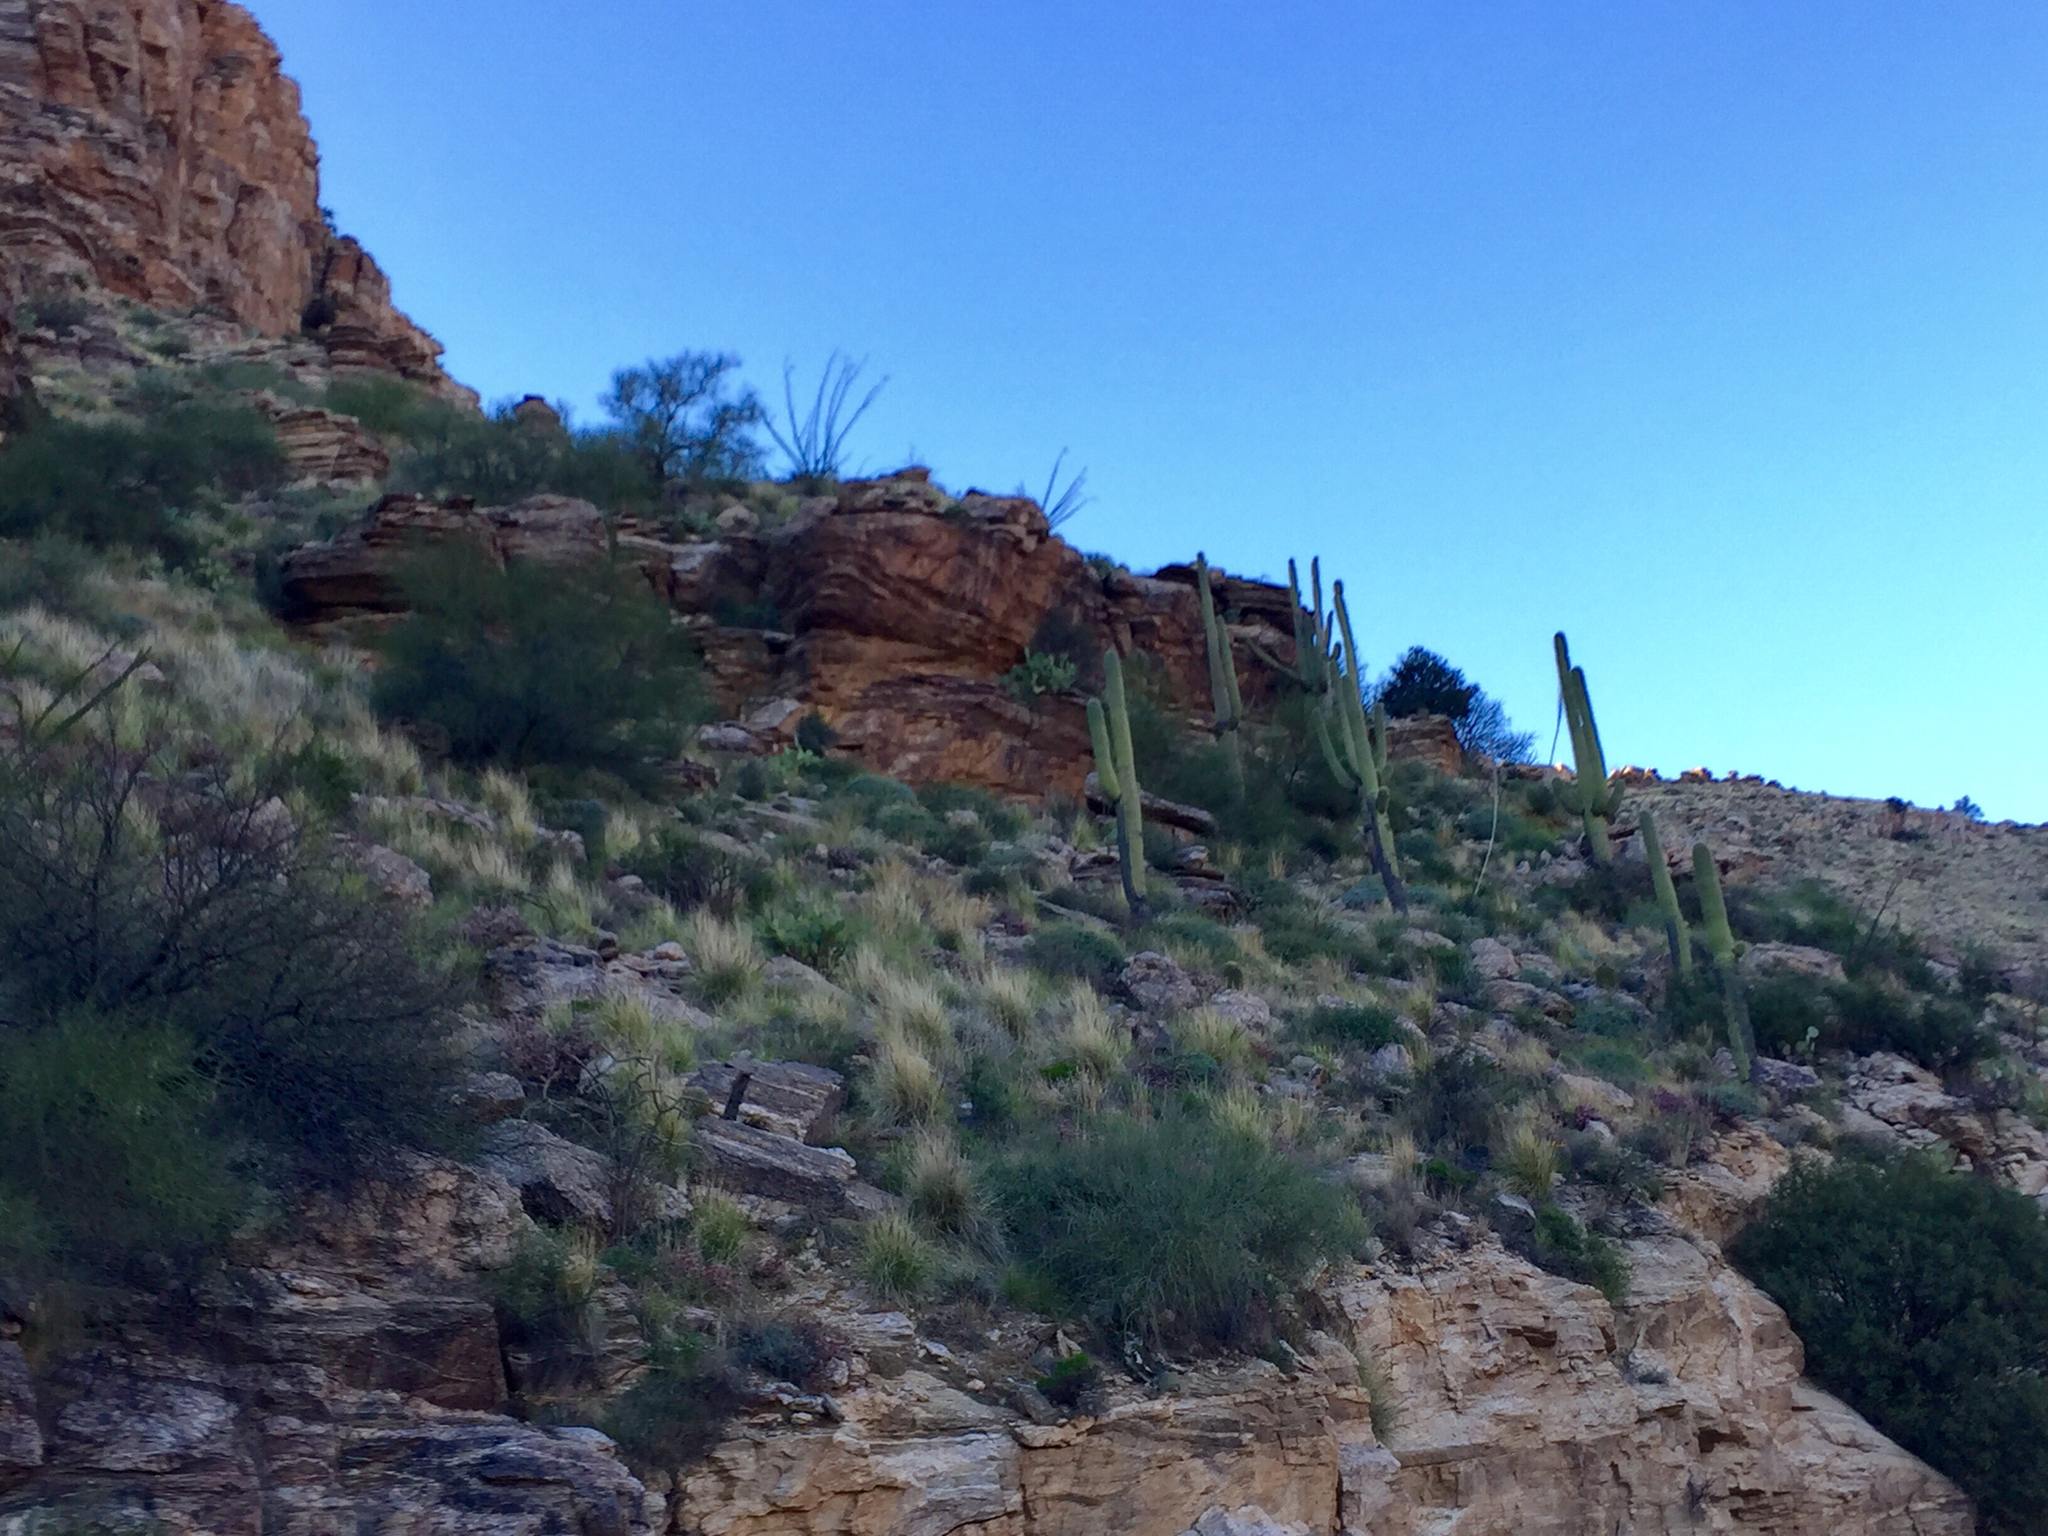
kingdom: Plantae
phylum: Tracheophyta
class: Magnoliopsida
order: Caryophyllales
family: Cactaceae
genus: Carnegiea
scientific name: Carnegiea gigantea
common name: Saguaro
